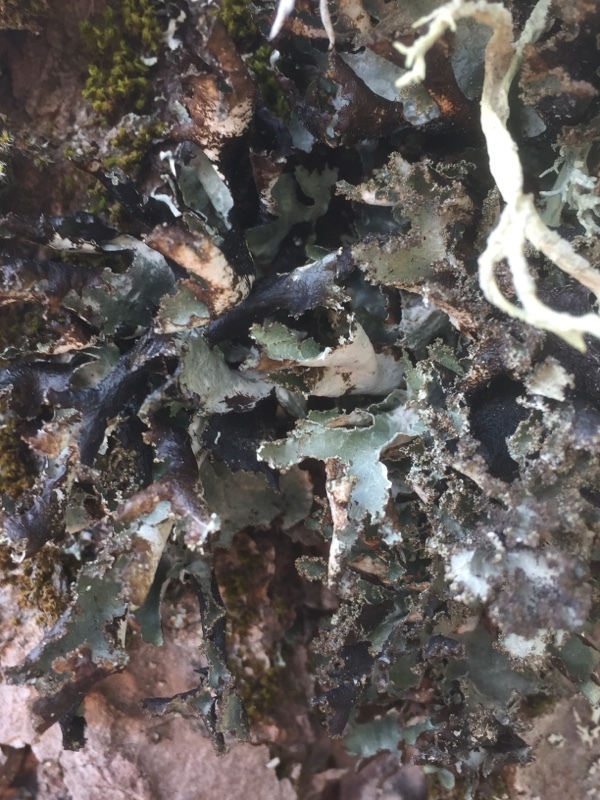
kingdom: Fungi
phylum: Ascomycota
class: Lecanoromycetes
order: Lecanorales
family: Parmeliaceae
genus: Platismatia
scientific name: Platismatia glauca
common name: Varied rag lichen
